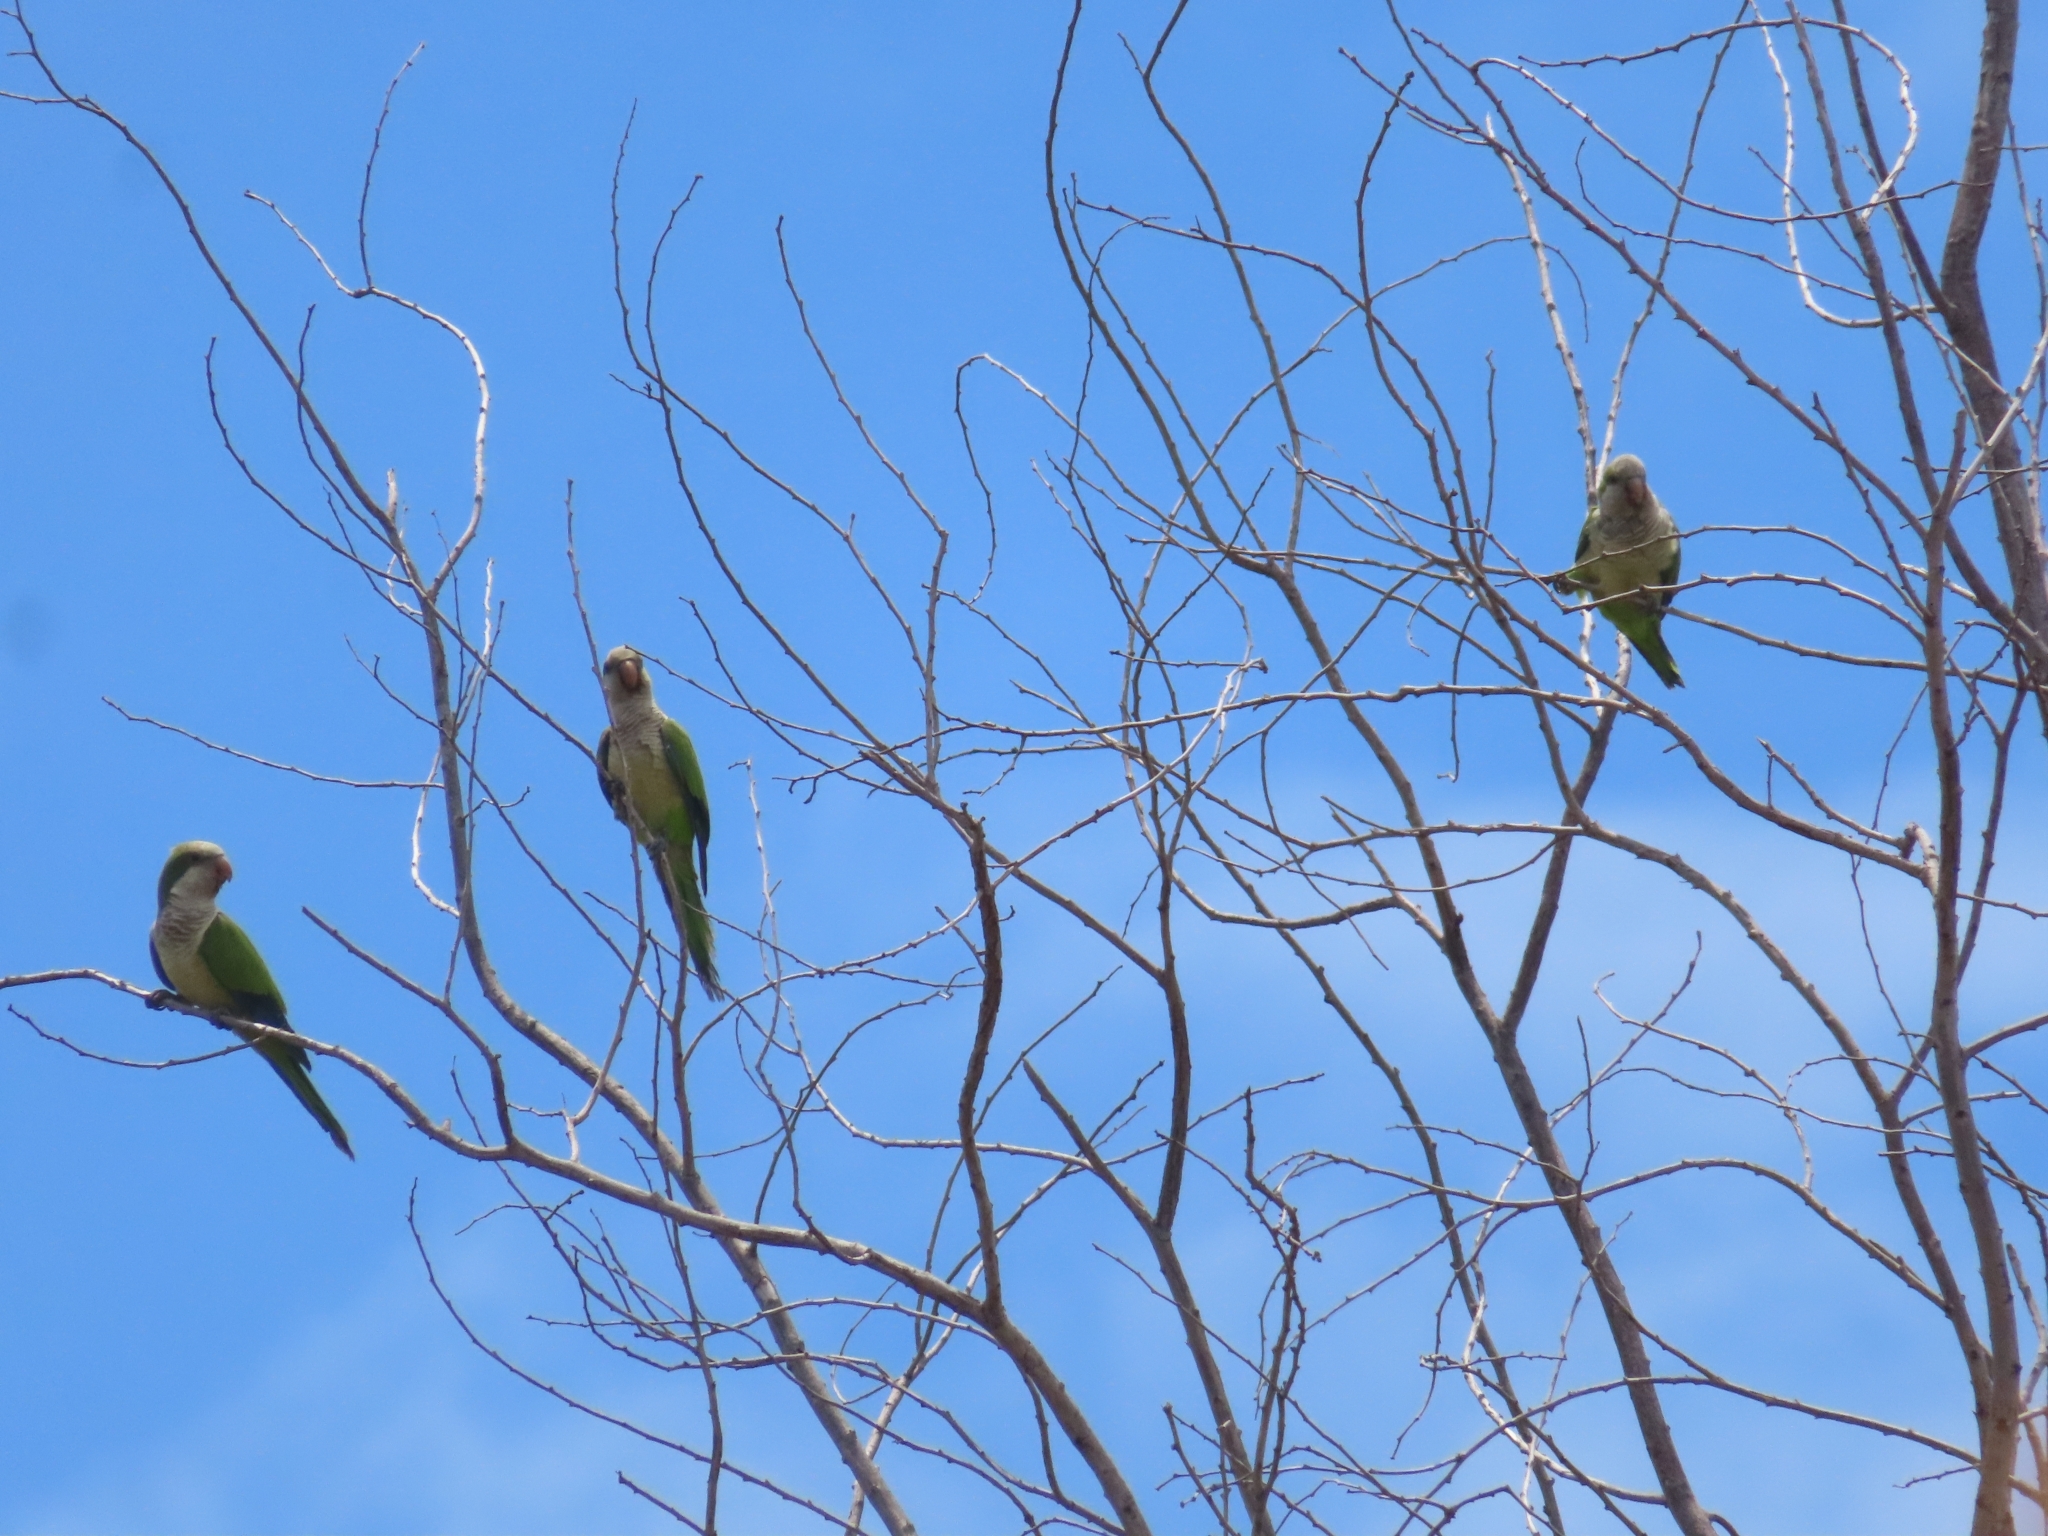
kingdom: Animalia
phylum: Chordata
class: Aves
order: Psittaciformes
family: Psittacidae
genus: Myiopsitta
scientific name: Myiopsitta monachus
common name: Monk parakeet
